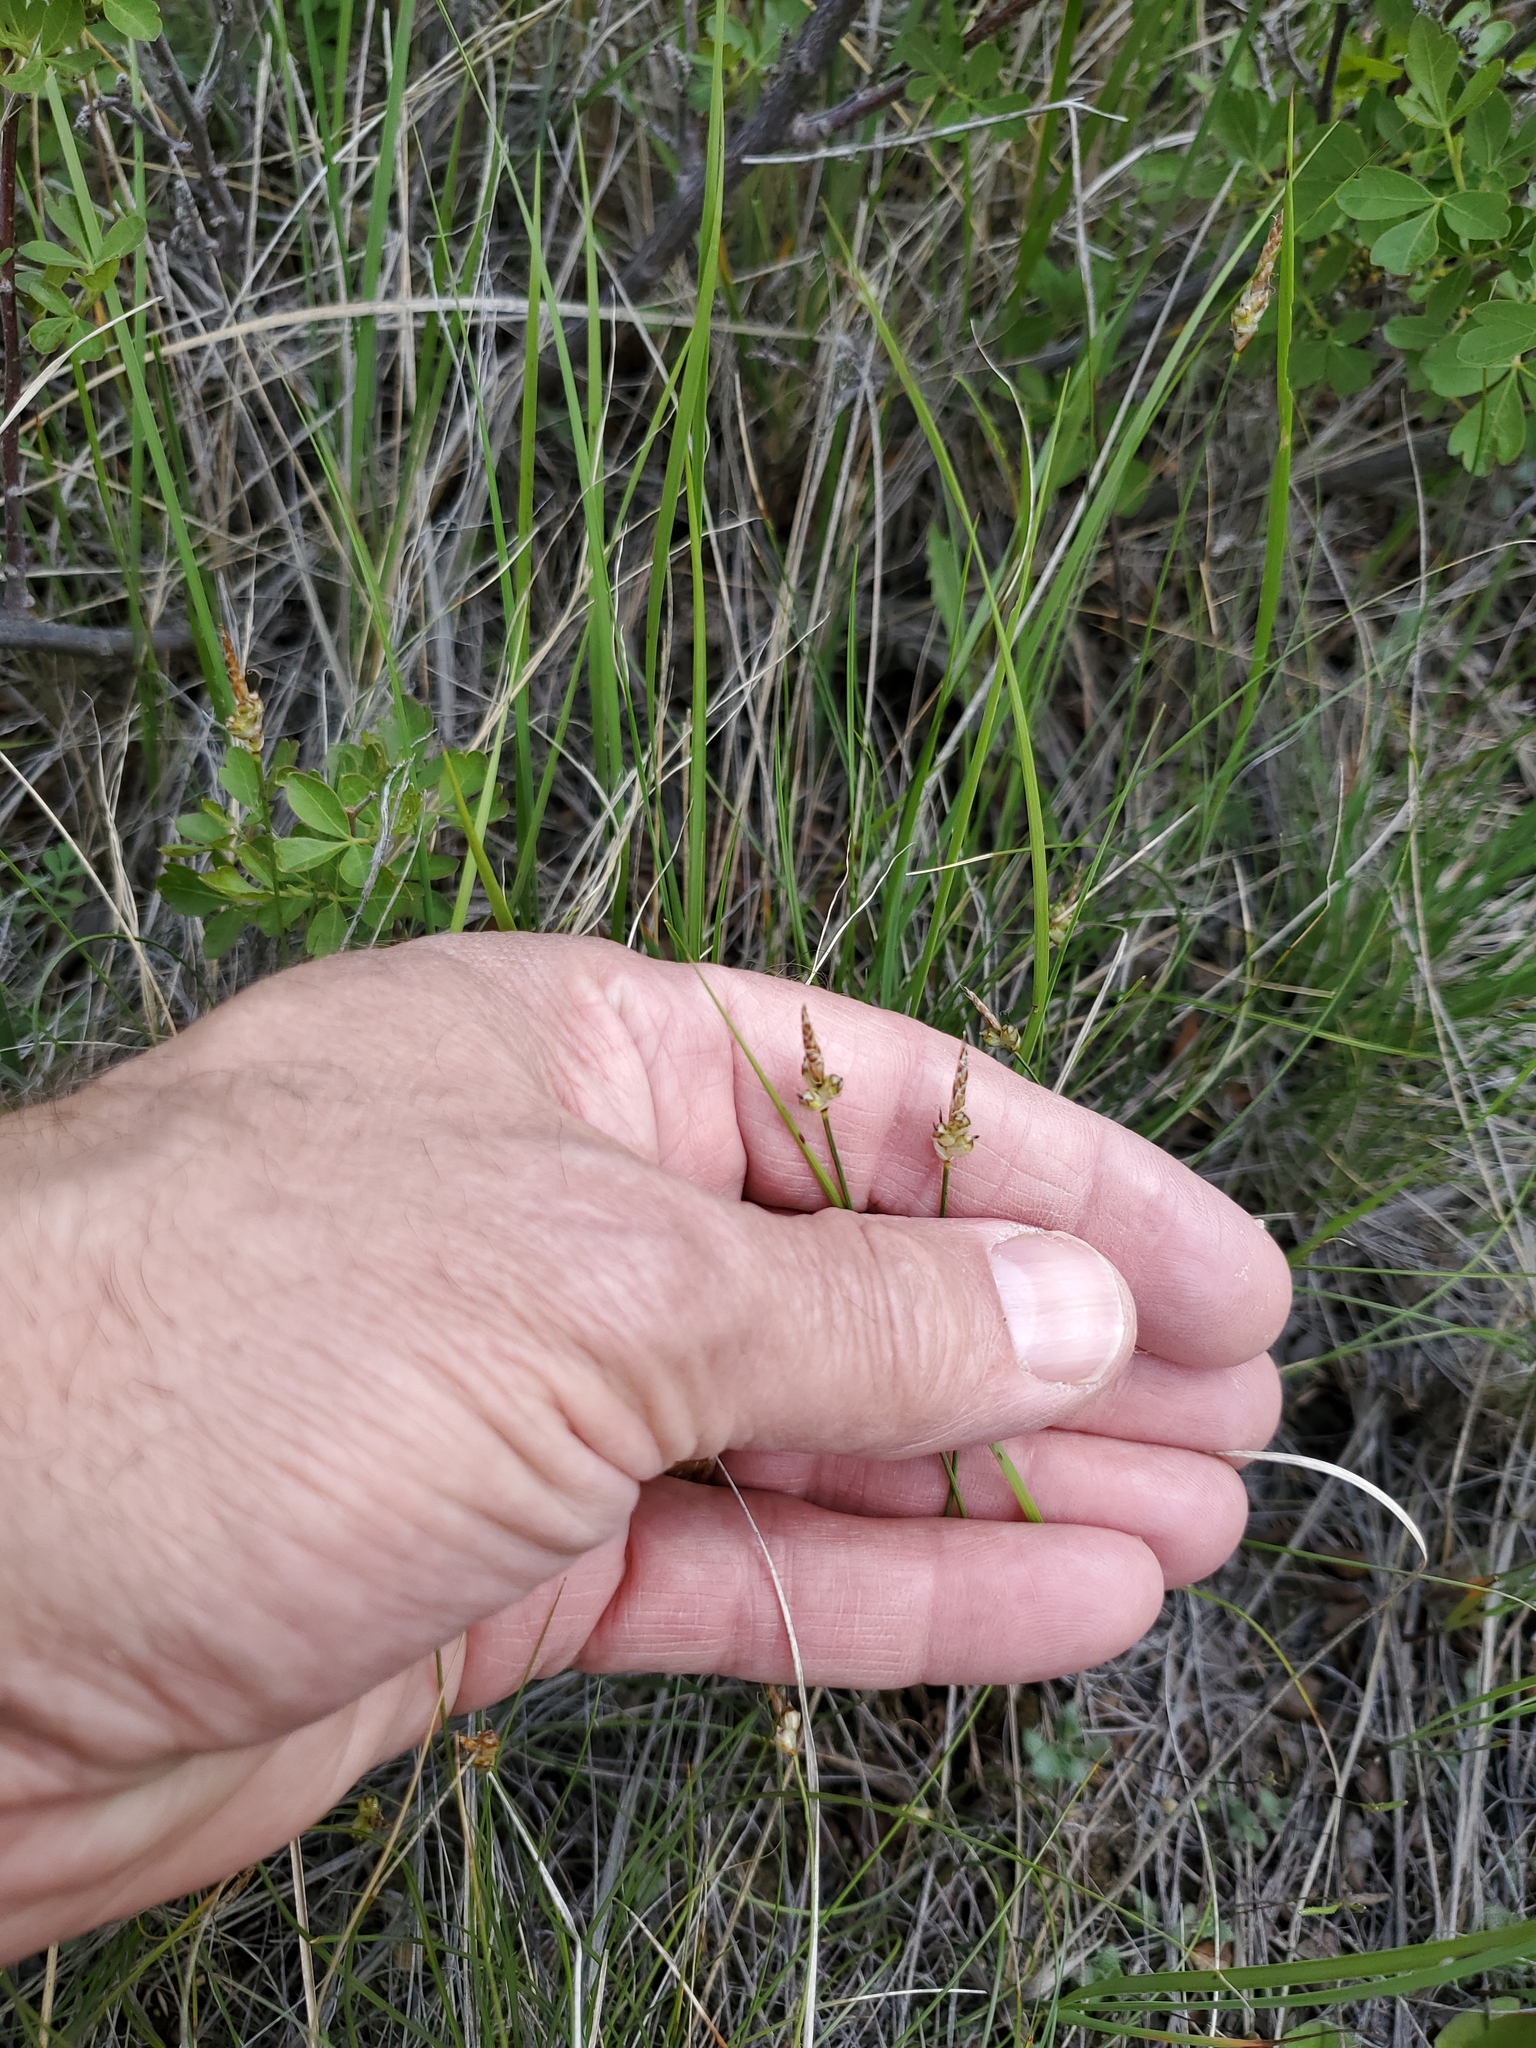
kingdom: Plantae
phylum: Tracheophyta
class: Liliopsida
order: Poales
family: Cyperaceae
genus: Carex
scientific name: Carex filifolia
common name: Threadleaf sedge
